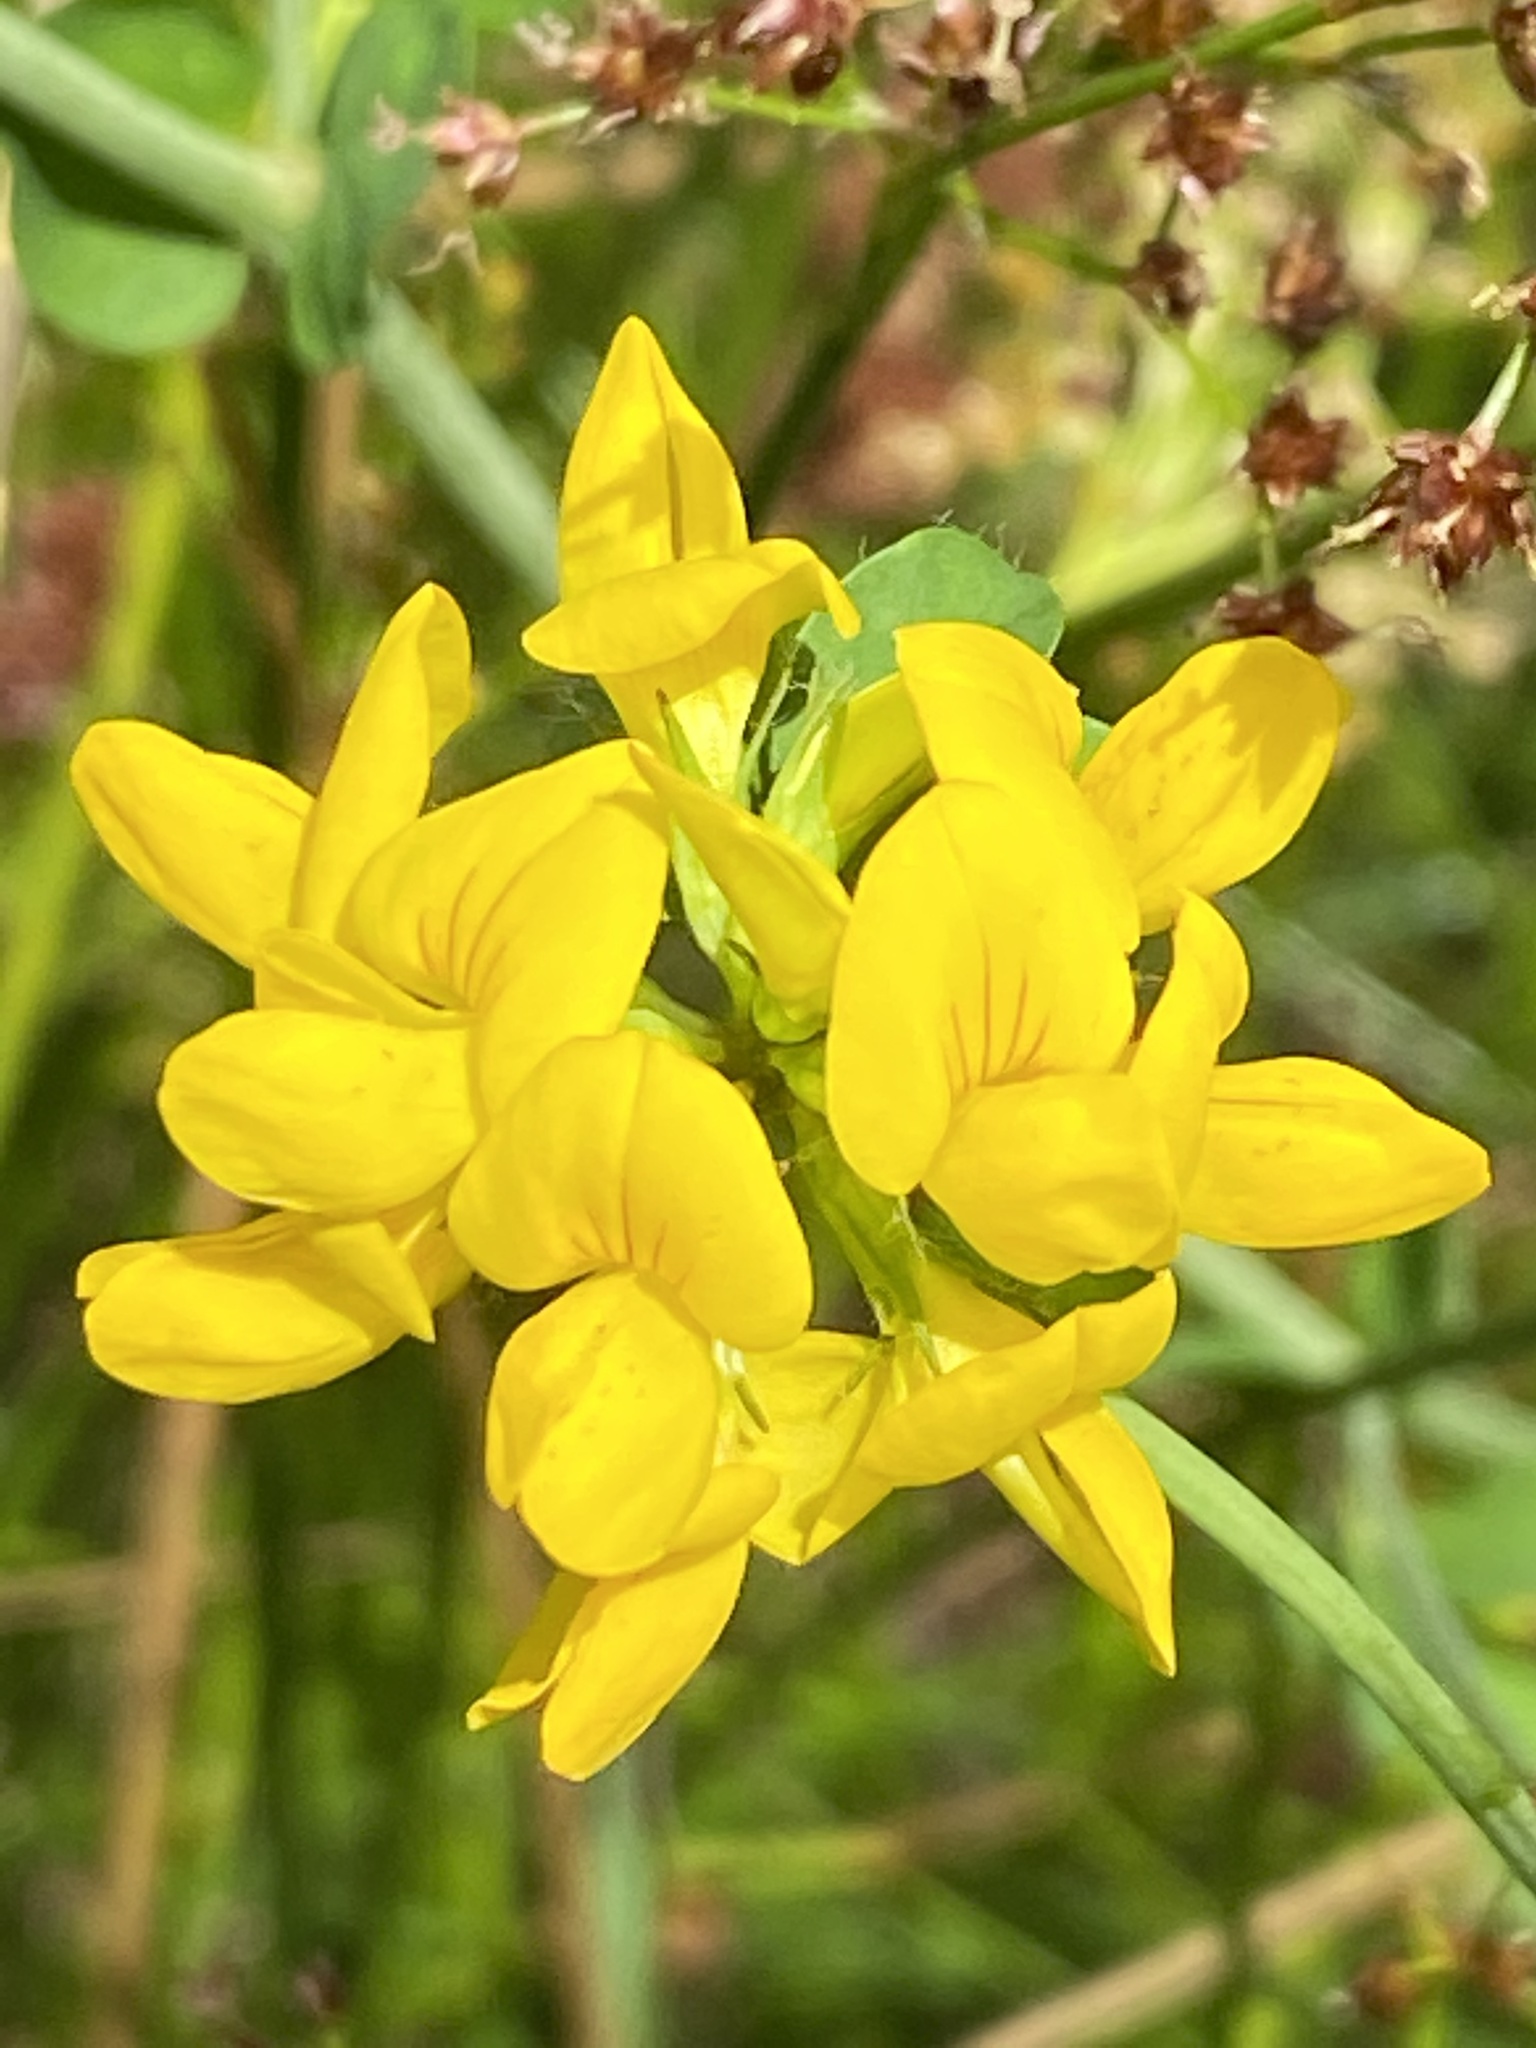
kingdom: Plantae
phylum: Tracheophyta
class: Magnoliopsida
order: Fabales
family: Fabaceae
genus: Lotus
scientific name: Lotus pedunculatus
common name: Greater birdsfoot-trefoil
